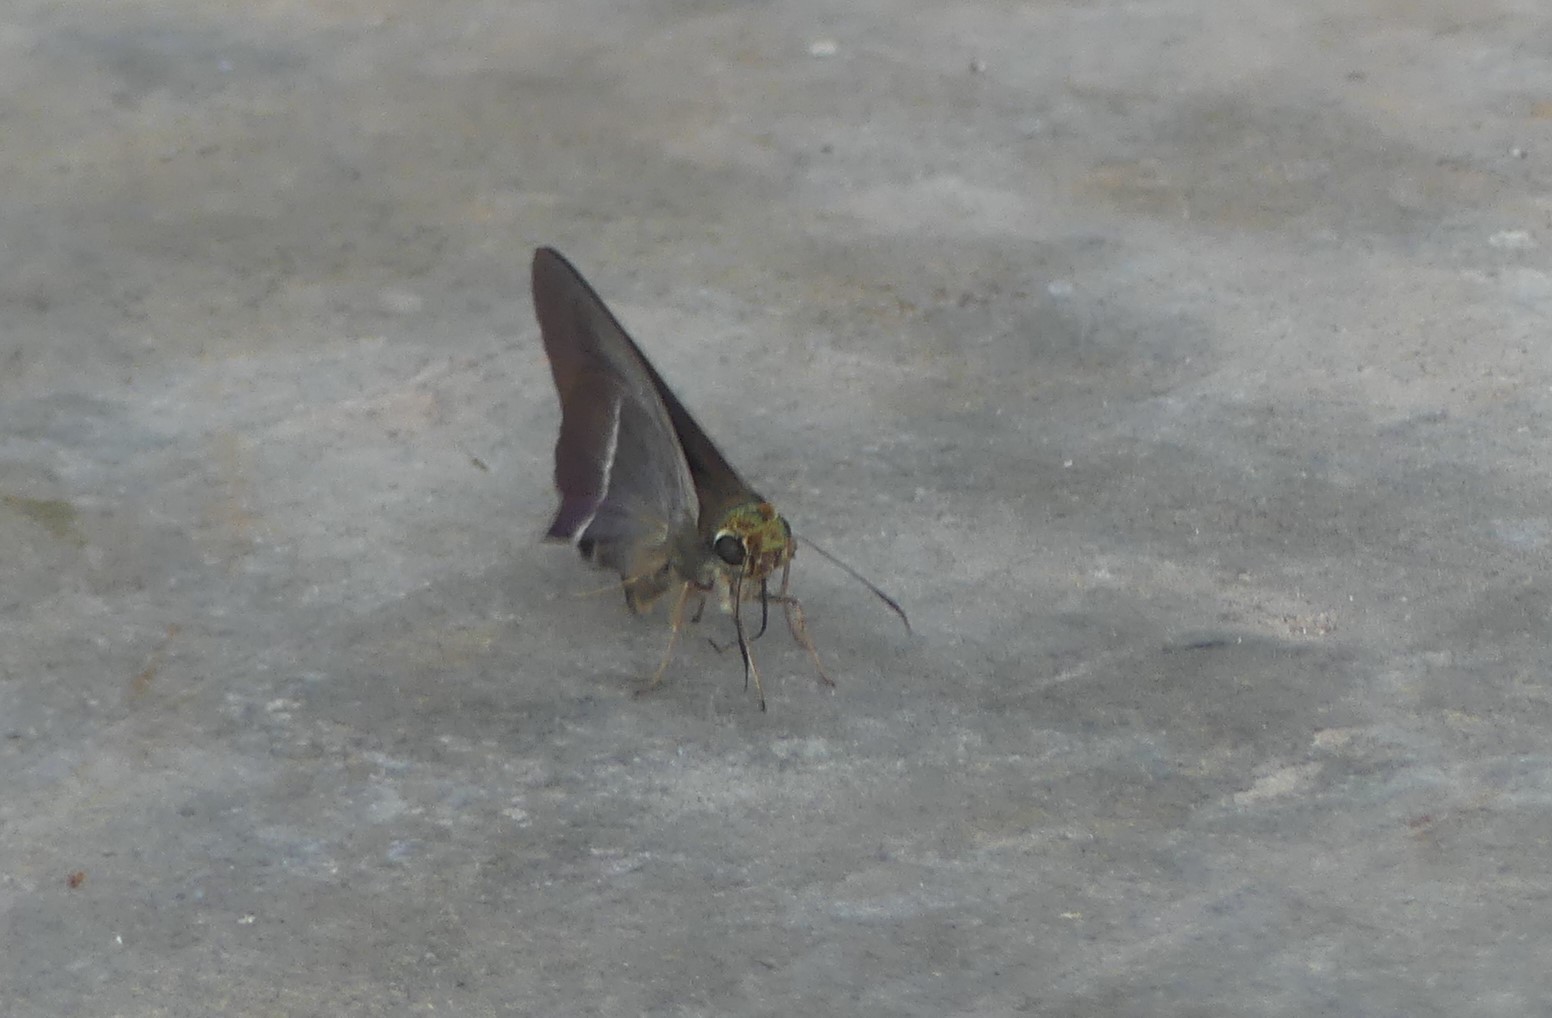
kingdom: Animalia
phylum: Arthropoda
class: Insecta
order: Lepidoptera
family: Hesperiidae
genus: Hasora
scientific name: Hasora chromus
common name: Common banded awl
